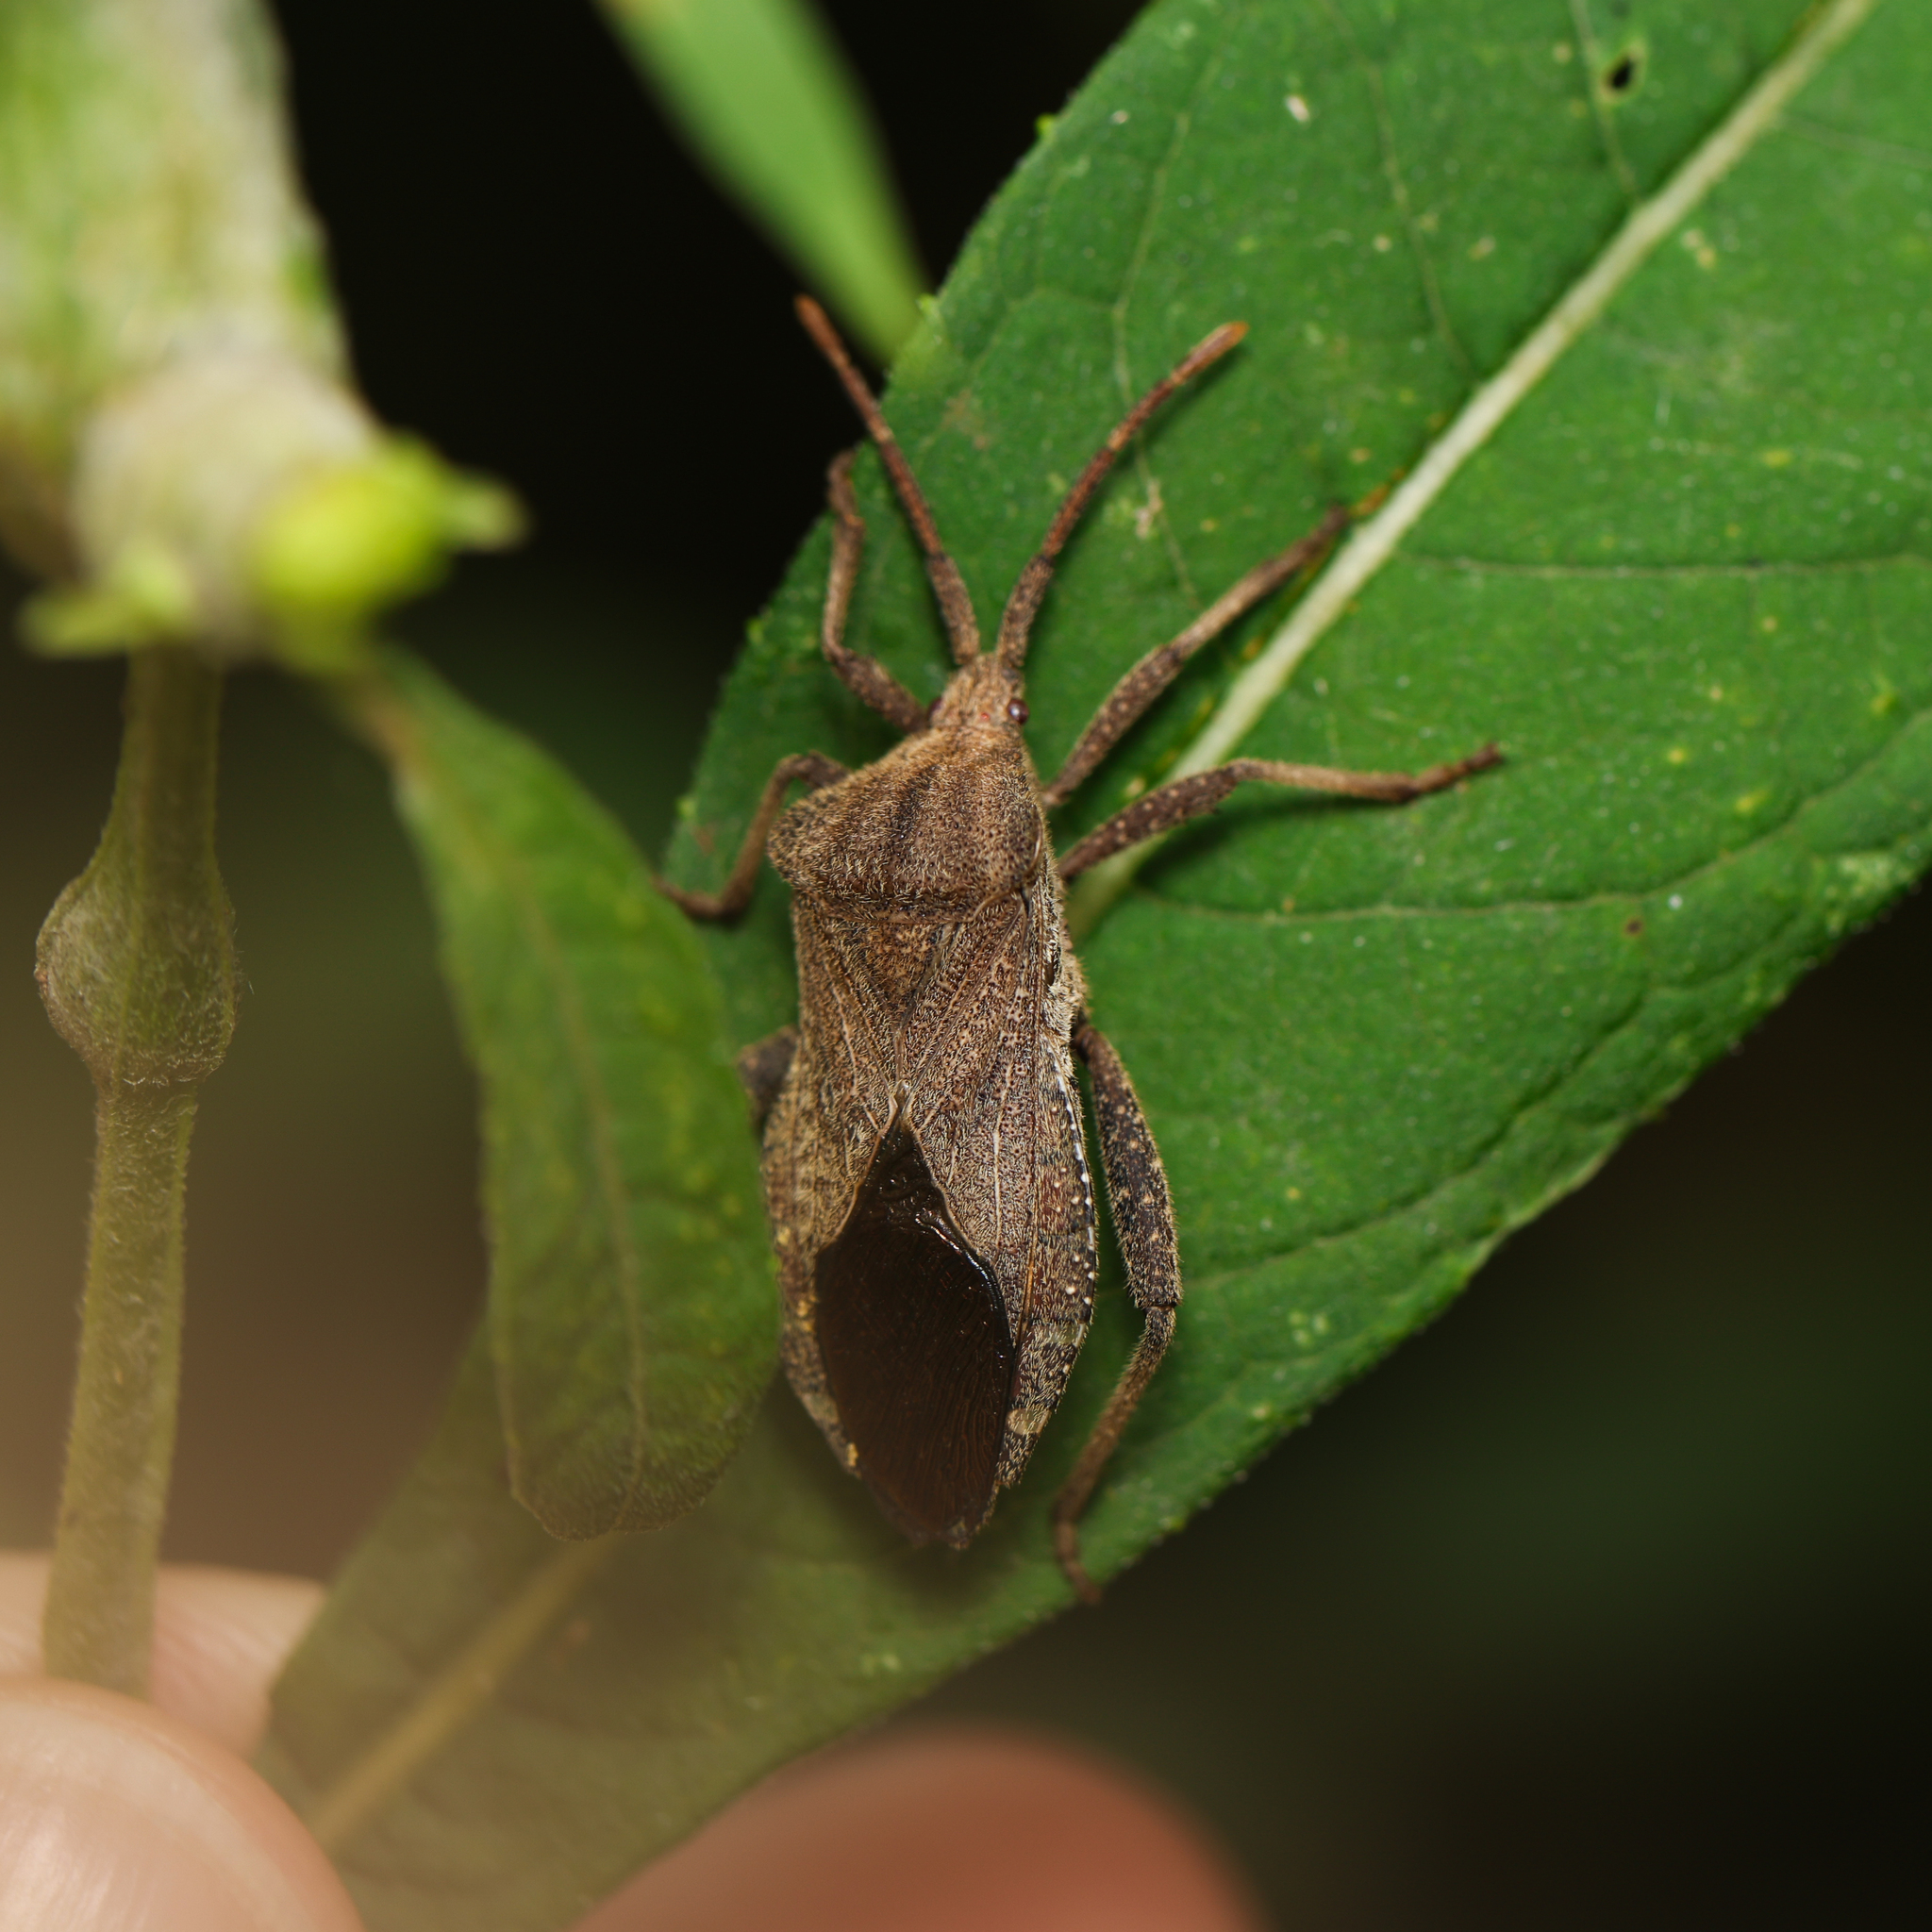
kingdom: Animalia
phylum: Arthropoda
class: Insecta
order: Hemiptera
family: Coreidae
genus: Piezogaster
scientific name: Piezogaster calcarator
